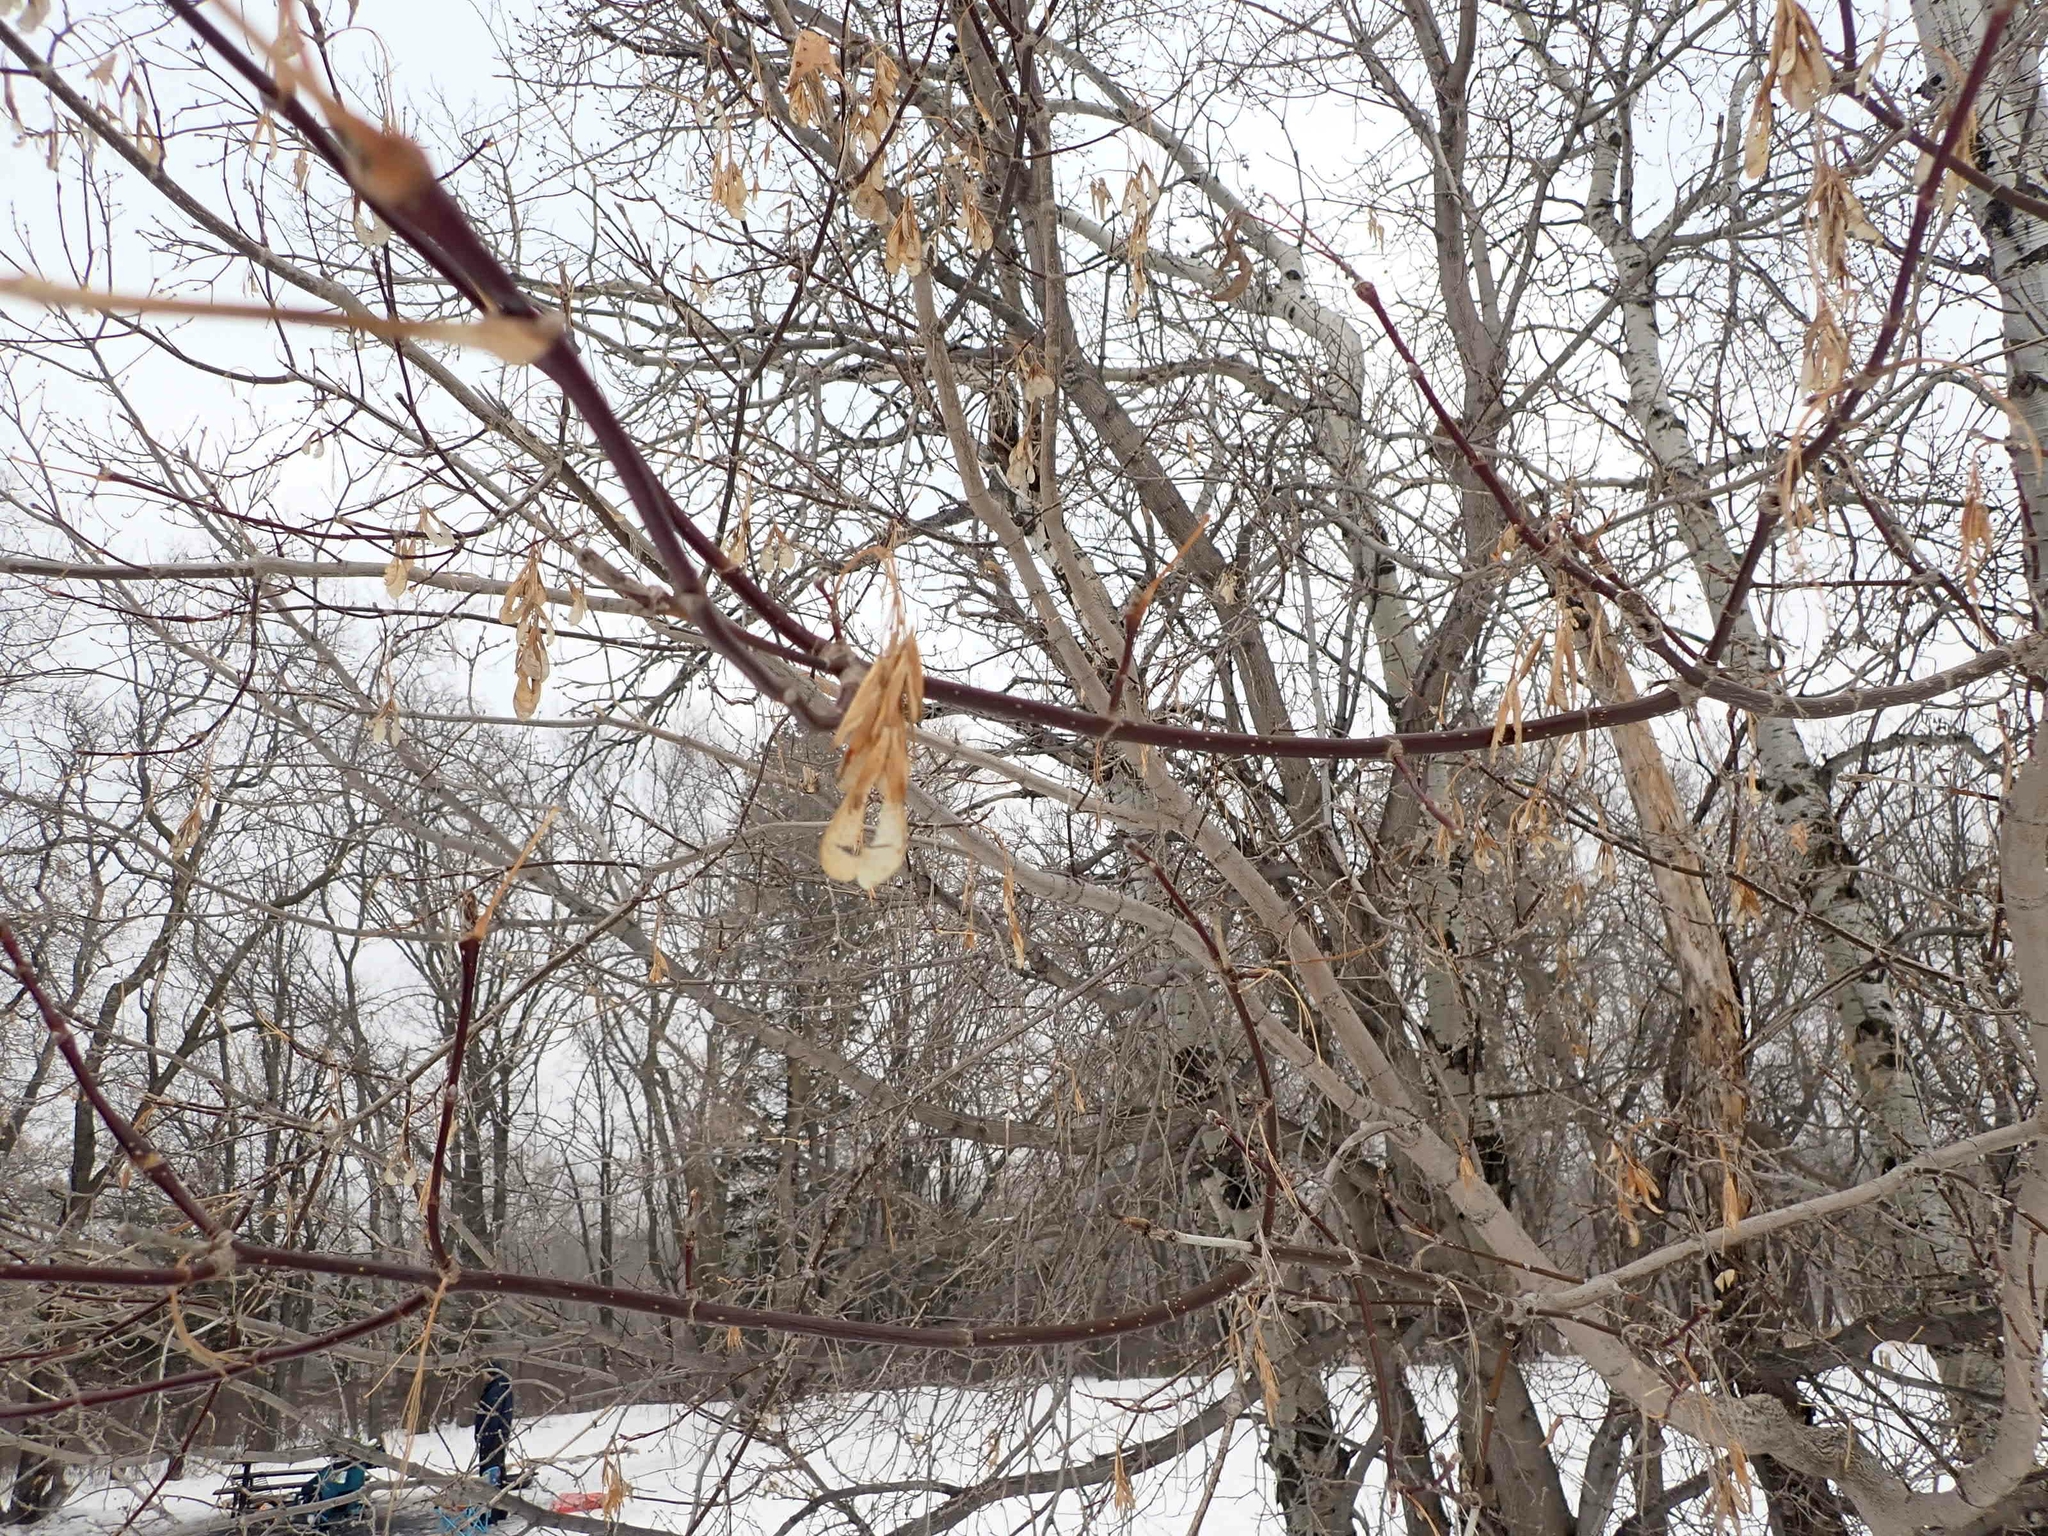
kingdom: Plantae
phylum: Tracheophyta
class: Magnoliopsida
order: Sapindales
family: Sapindaceae
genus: Acer
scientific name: Acer negundo
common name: Ashleaf maple
